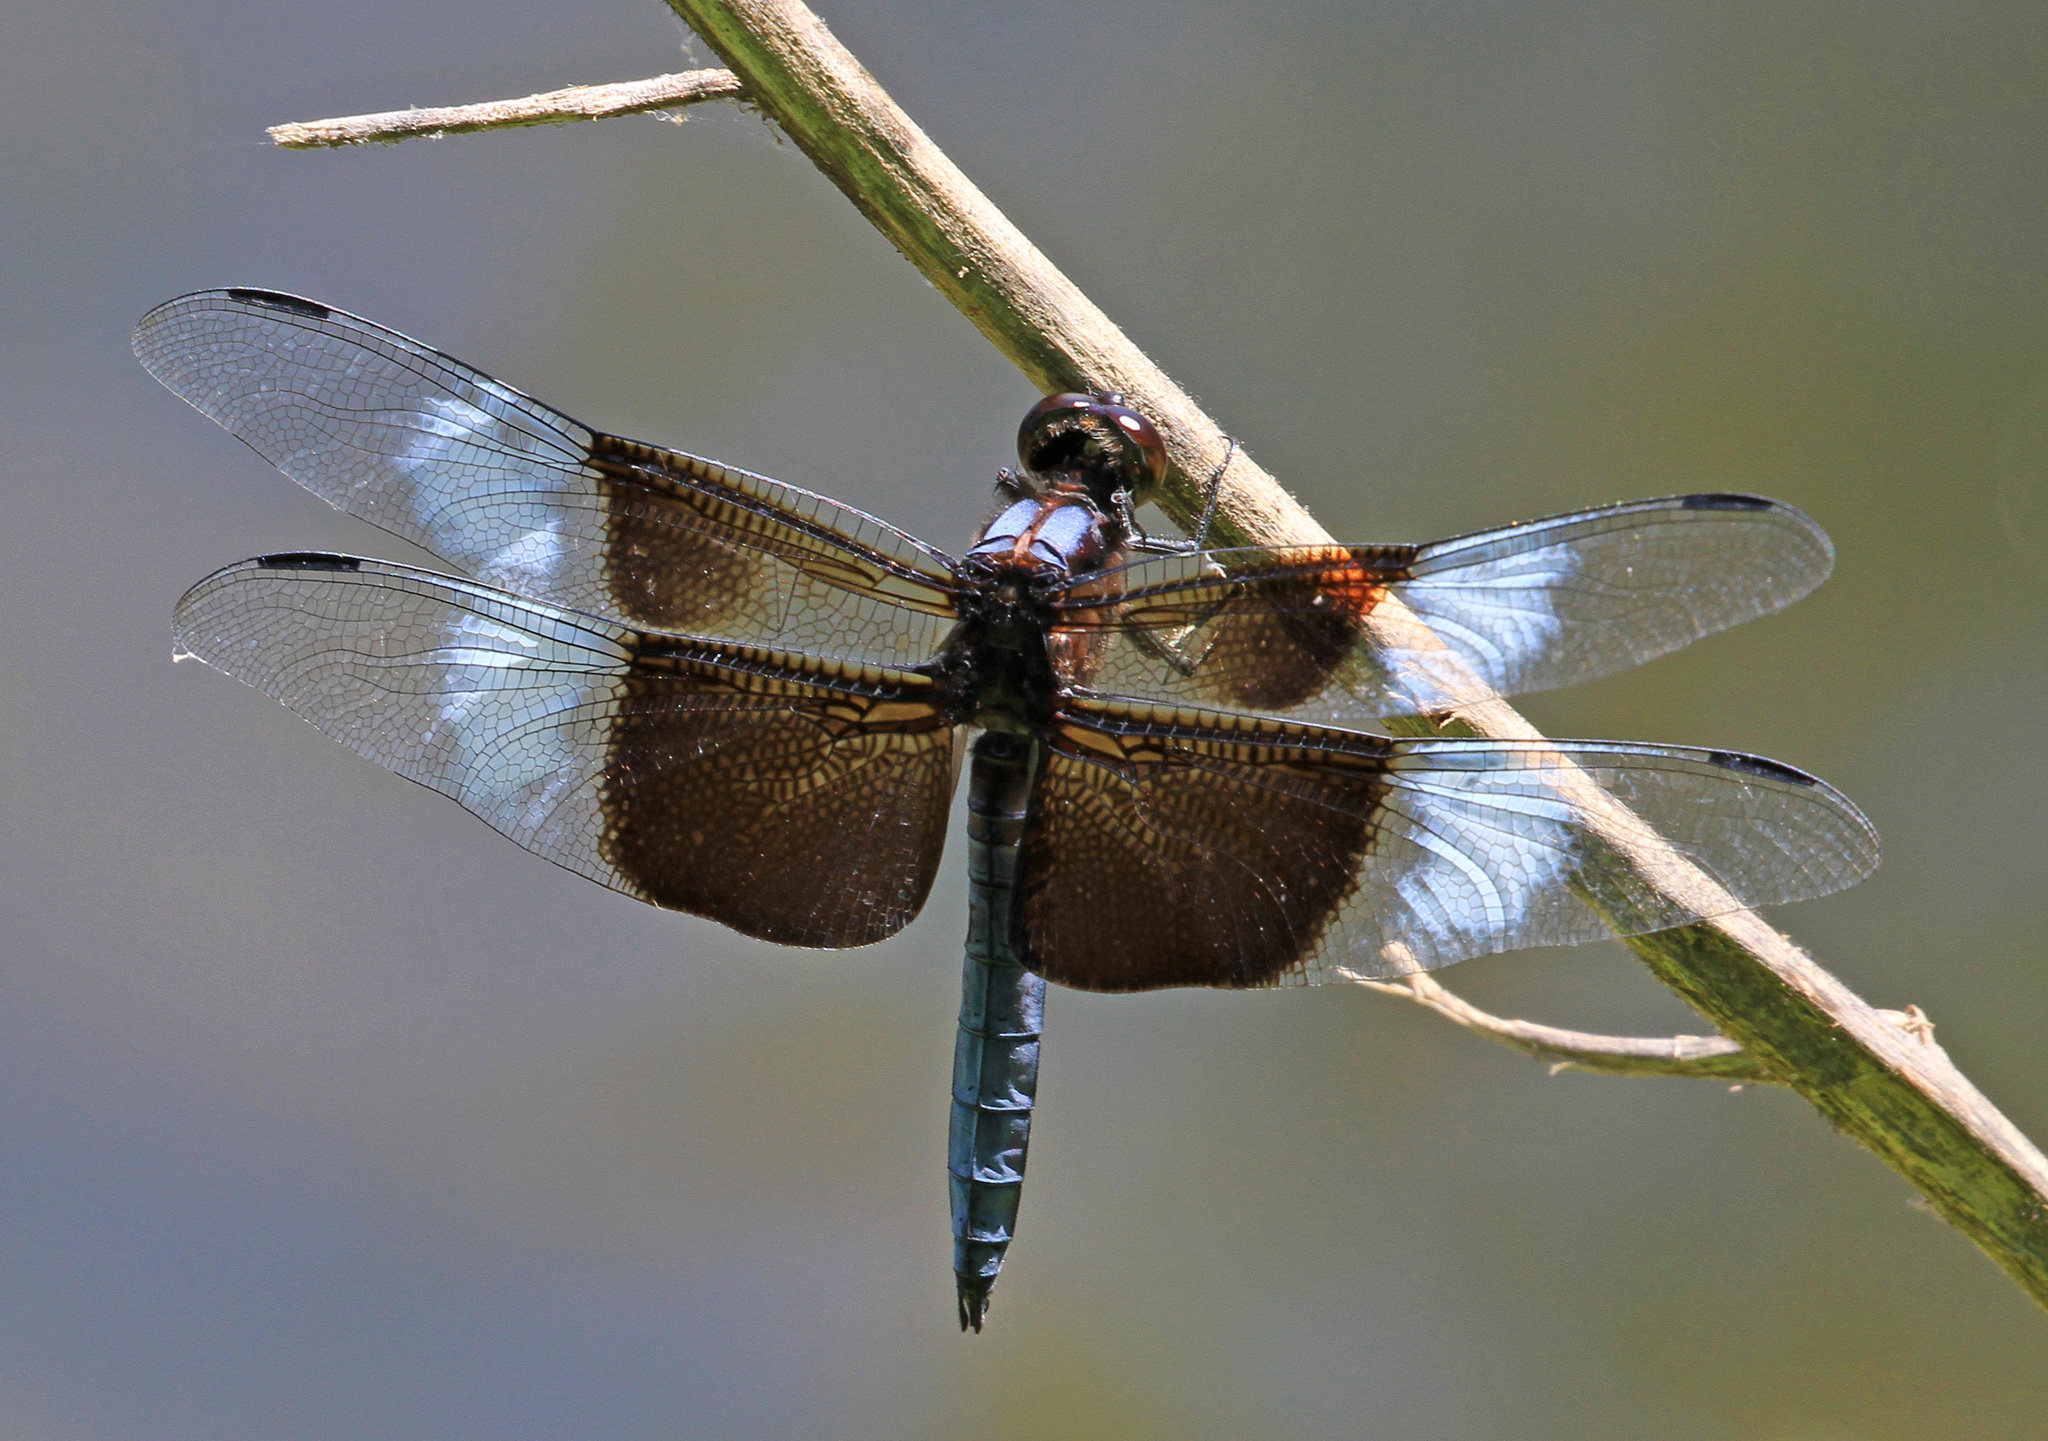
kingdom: Animalia
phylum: Arthropoda
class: Insecta
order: Odonata
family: Libellulidae
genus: Libellula
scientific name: Libellula luctuosa
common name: Widow skimmer
